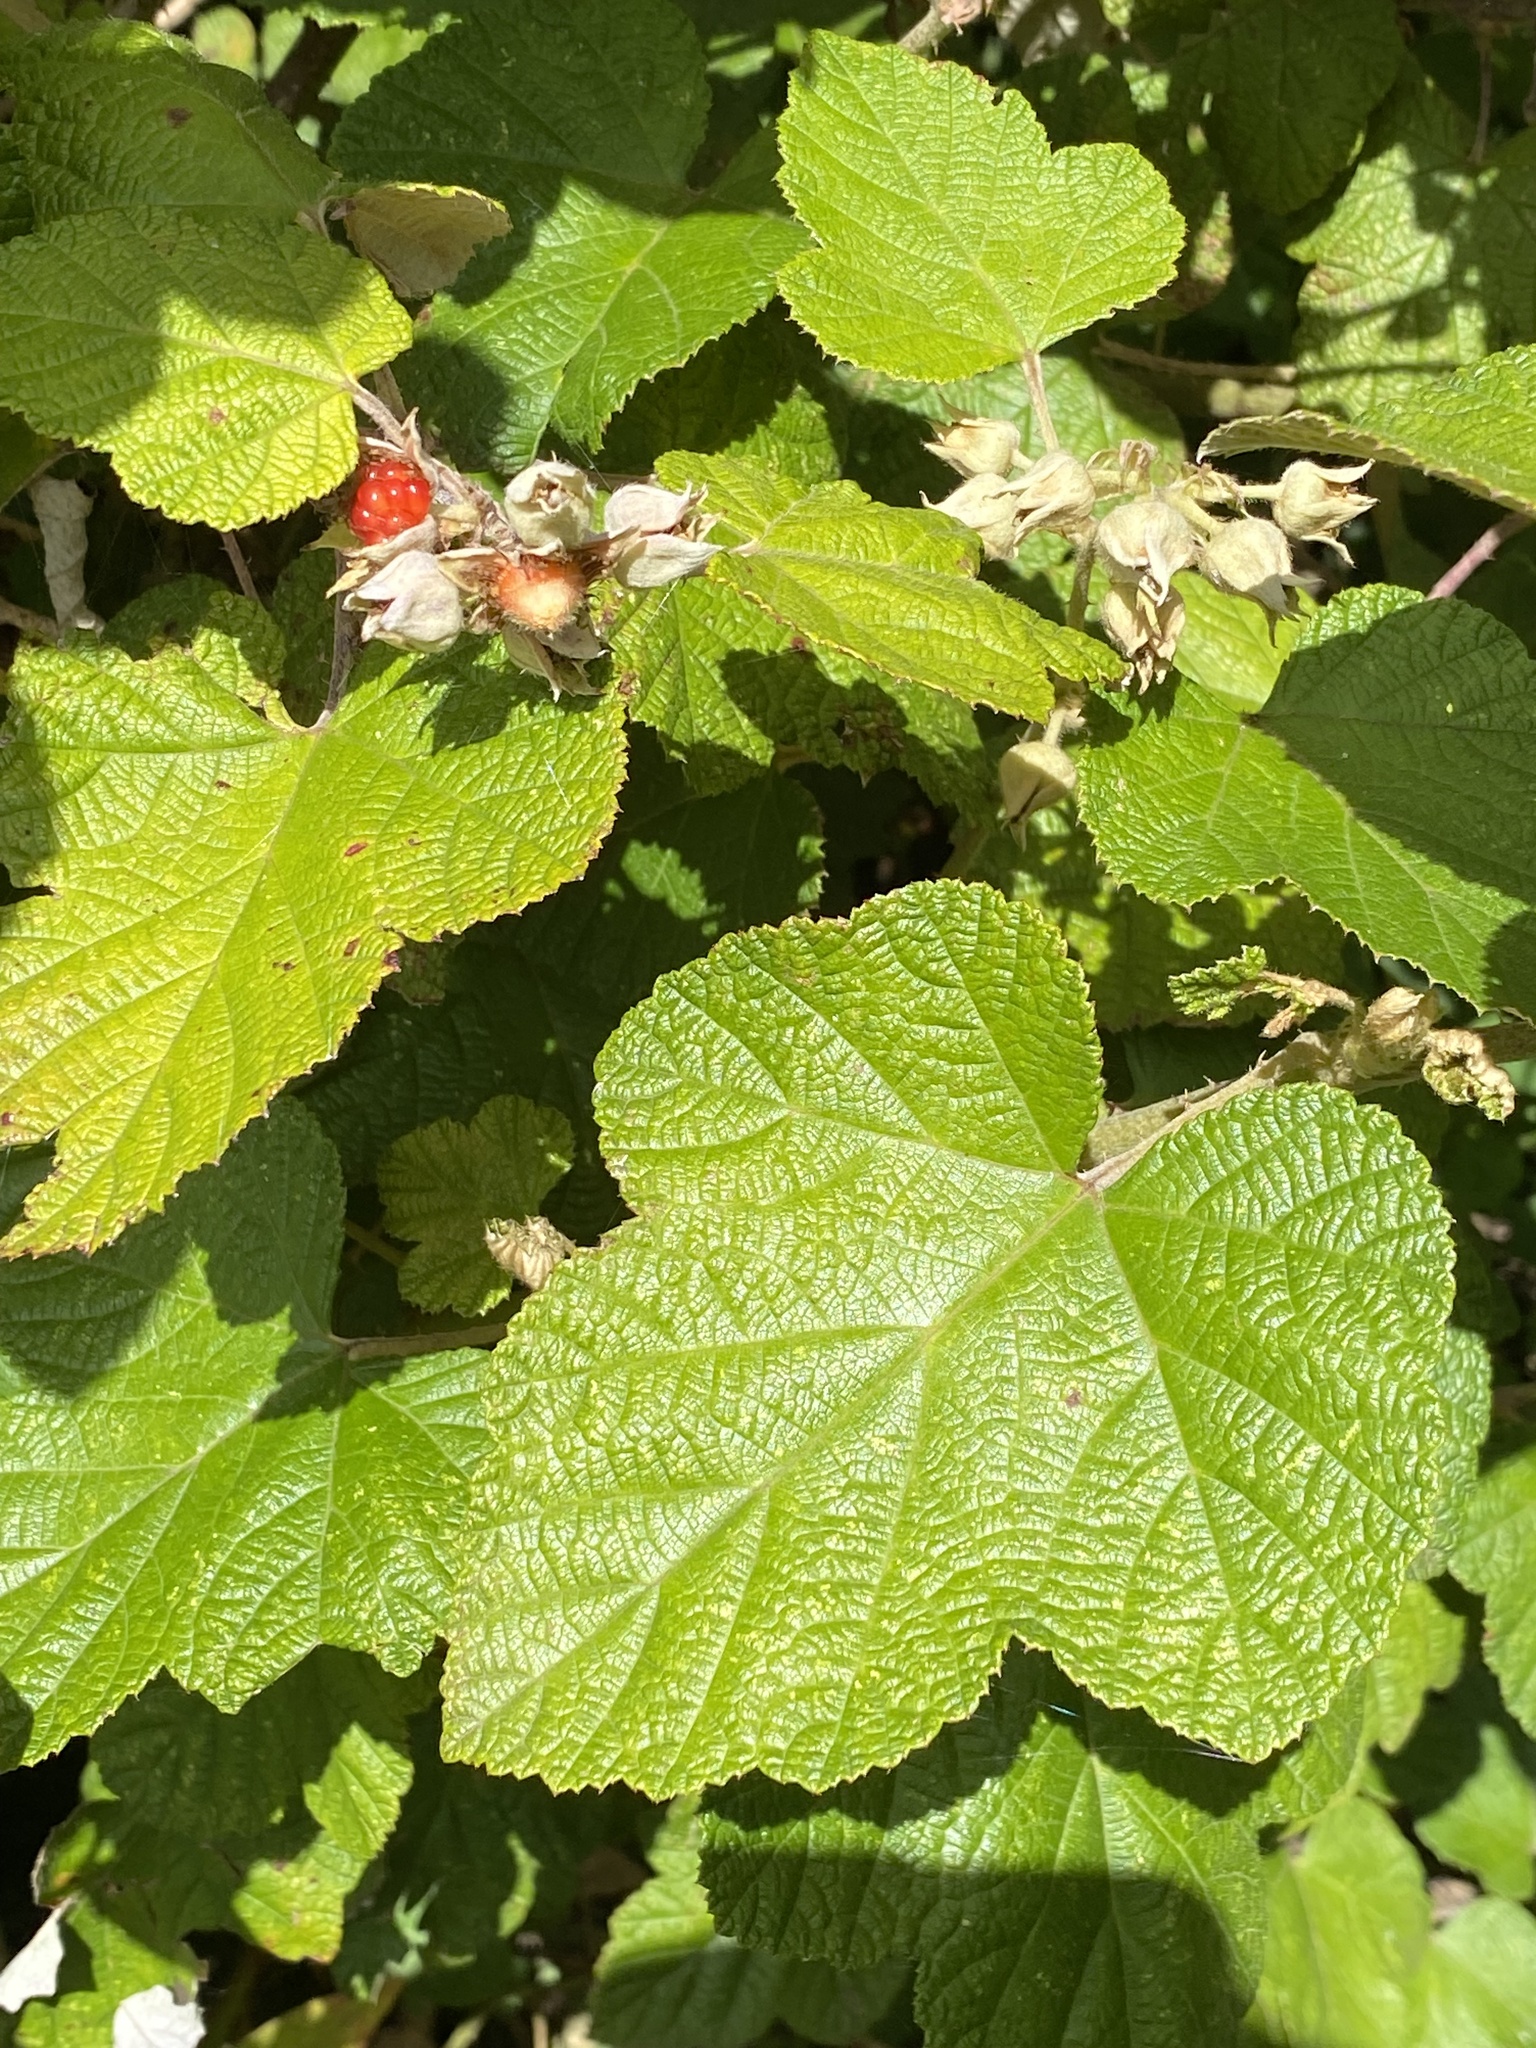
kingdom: Plantae
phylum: Tracheophyta
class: Magnoliopsida
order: Rosales
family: Rosaceae
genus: Rubus
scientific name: Rubus moluccanus
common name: Wild raspberry
